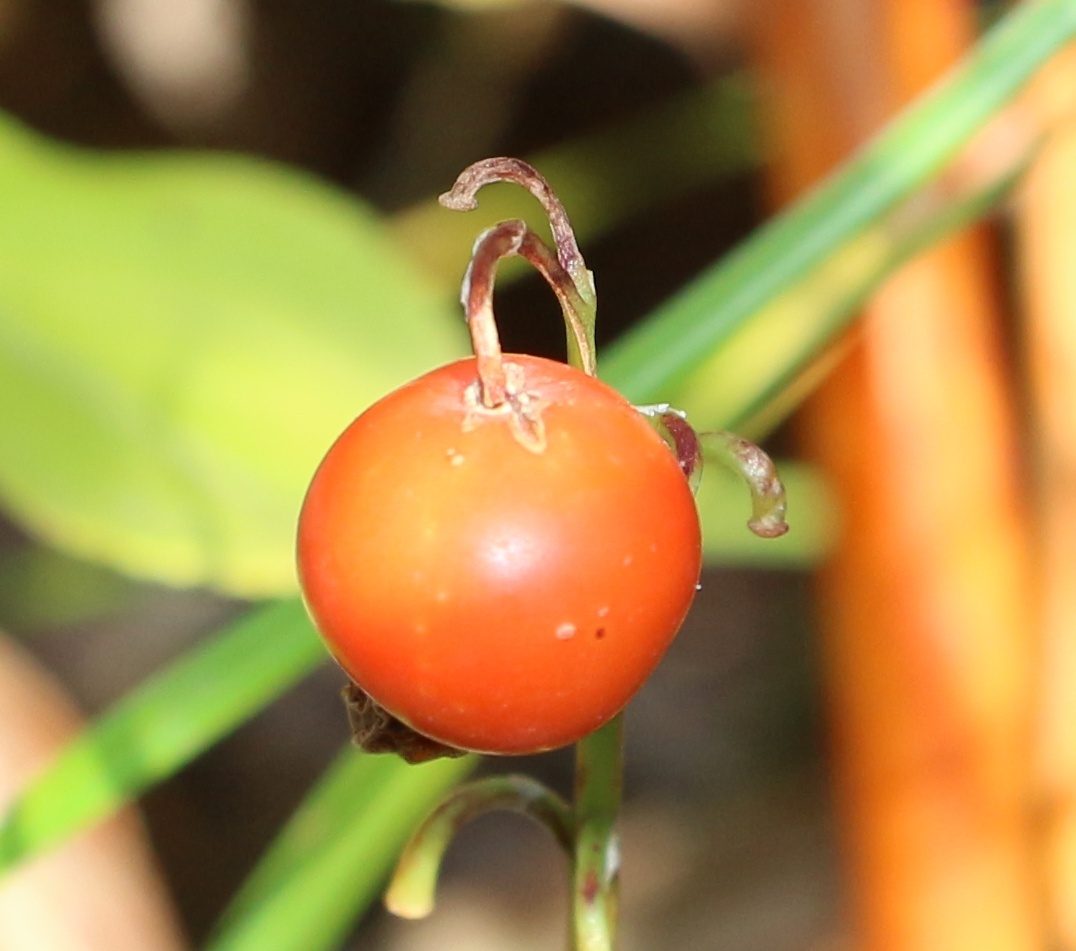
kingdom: Plantae
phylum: Tracheophyta
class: Liliopsida
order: Asparagales
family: Asparagaceae
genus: Convallaria
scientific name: Convallaria majalis
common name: Lily-of-the-valley
